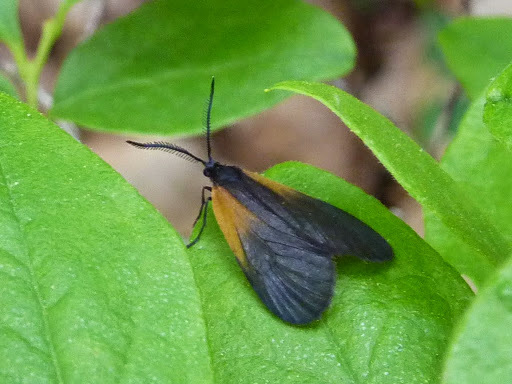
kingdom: Animalia
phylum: Arthropoda
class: Insecta
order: Lepidoptera
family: Zygaenidae
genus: Malthaca
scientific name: Malthaca dimidiata
